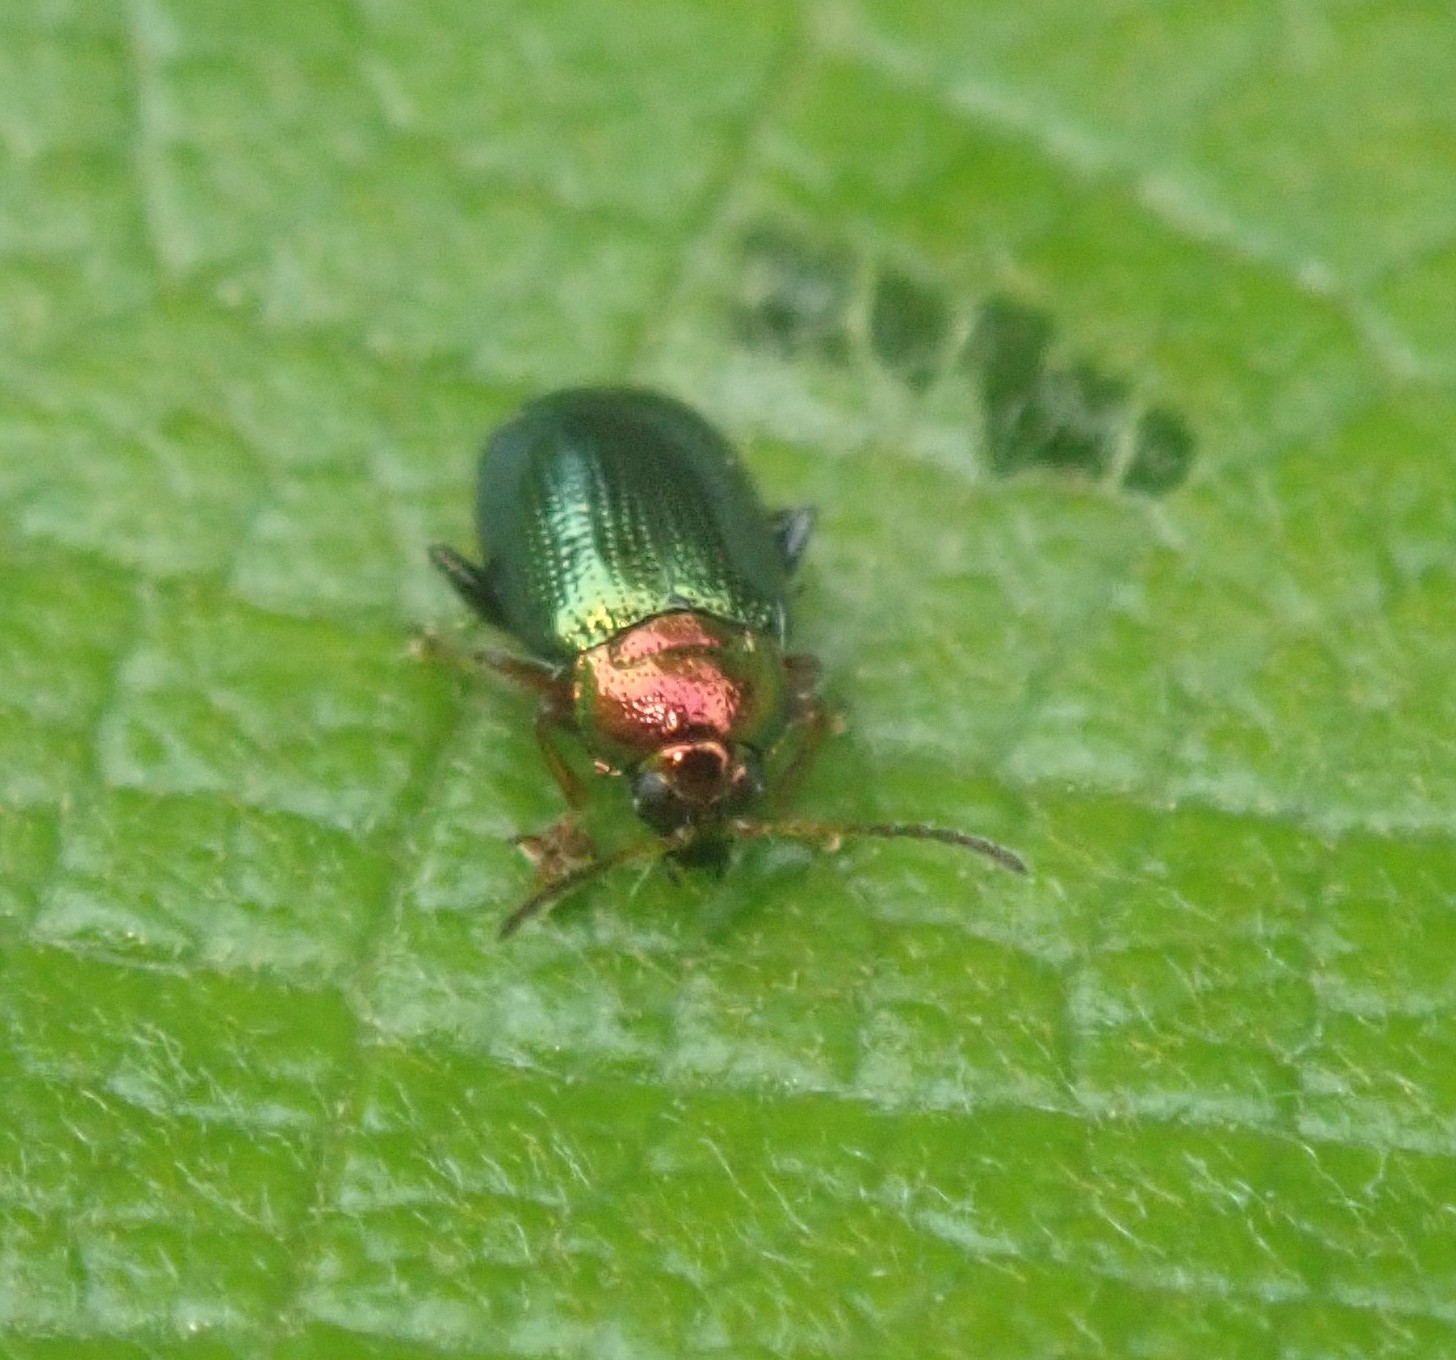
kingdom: Animalia
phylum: Arthropoda
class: Insecta
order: Coleoptera
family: Chrysomelidae
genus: Crepidodera
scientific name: Crepidodera aurata
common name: Willow flea beetle
